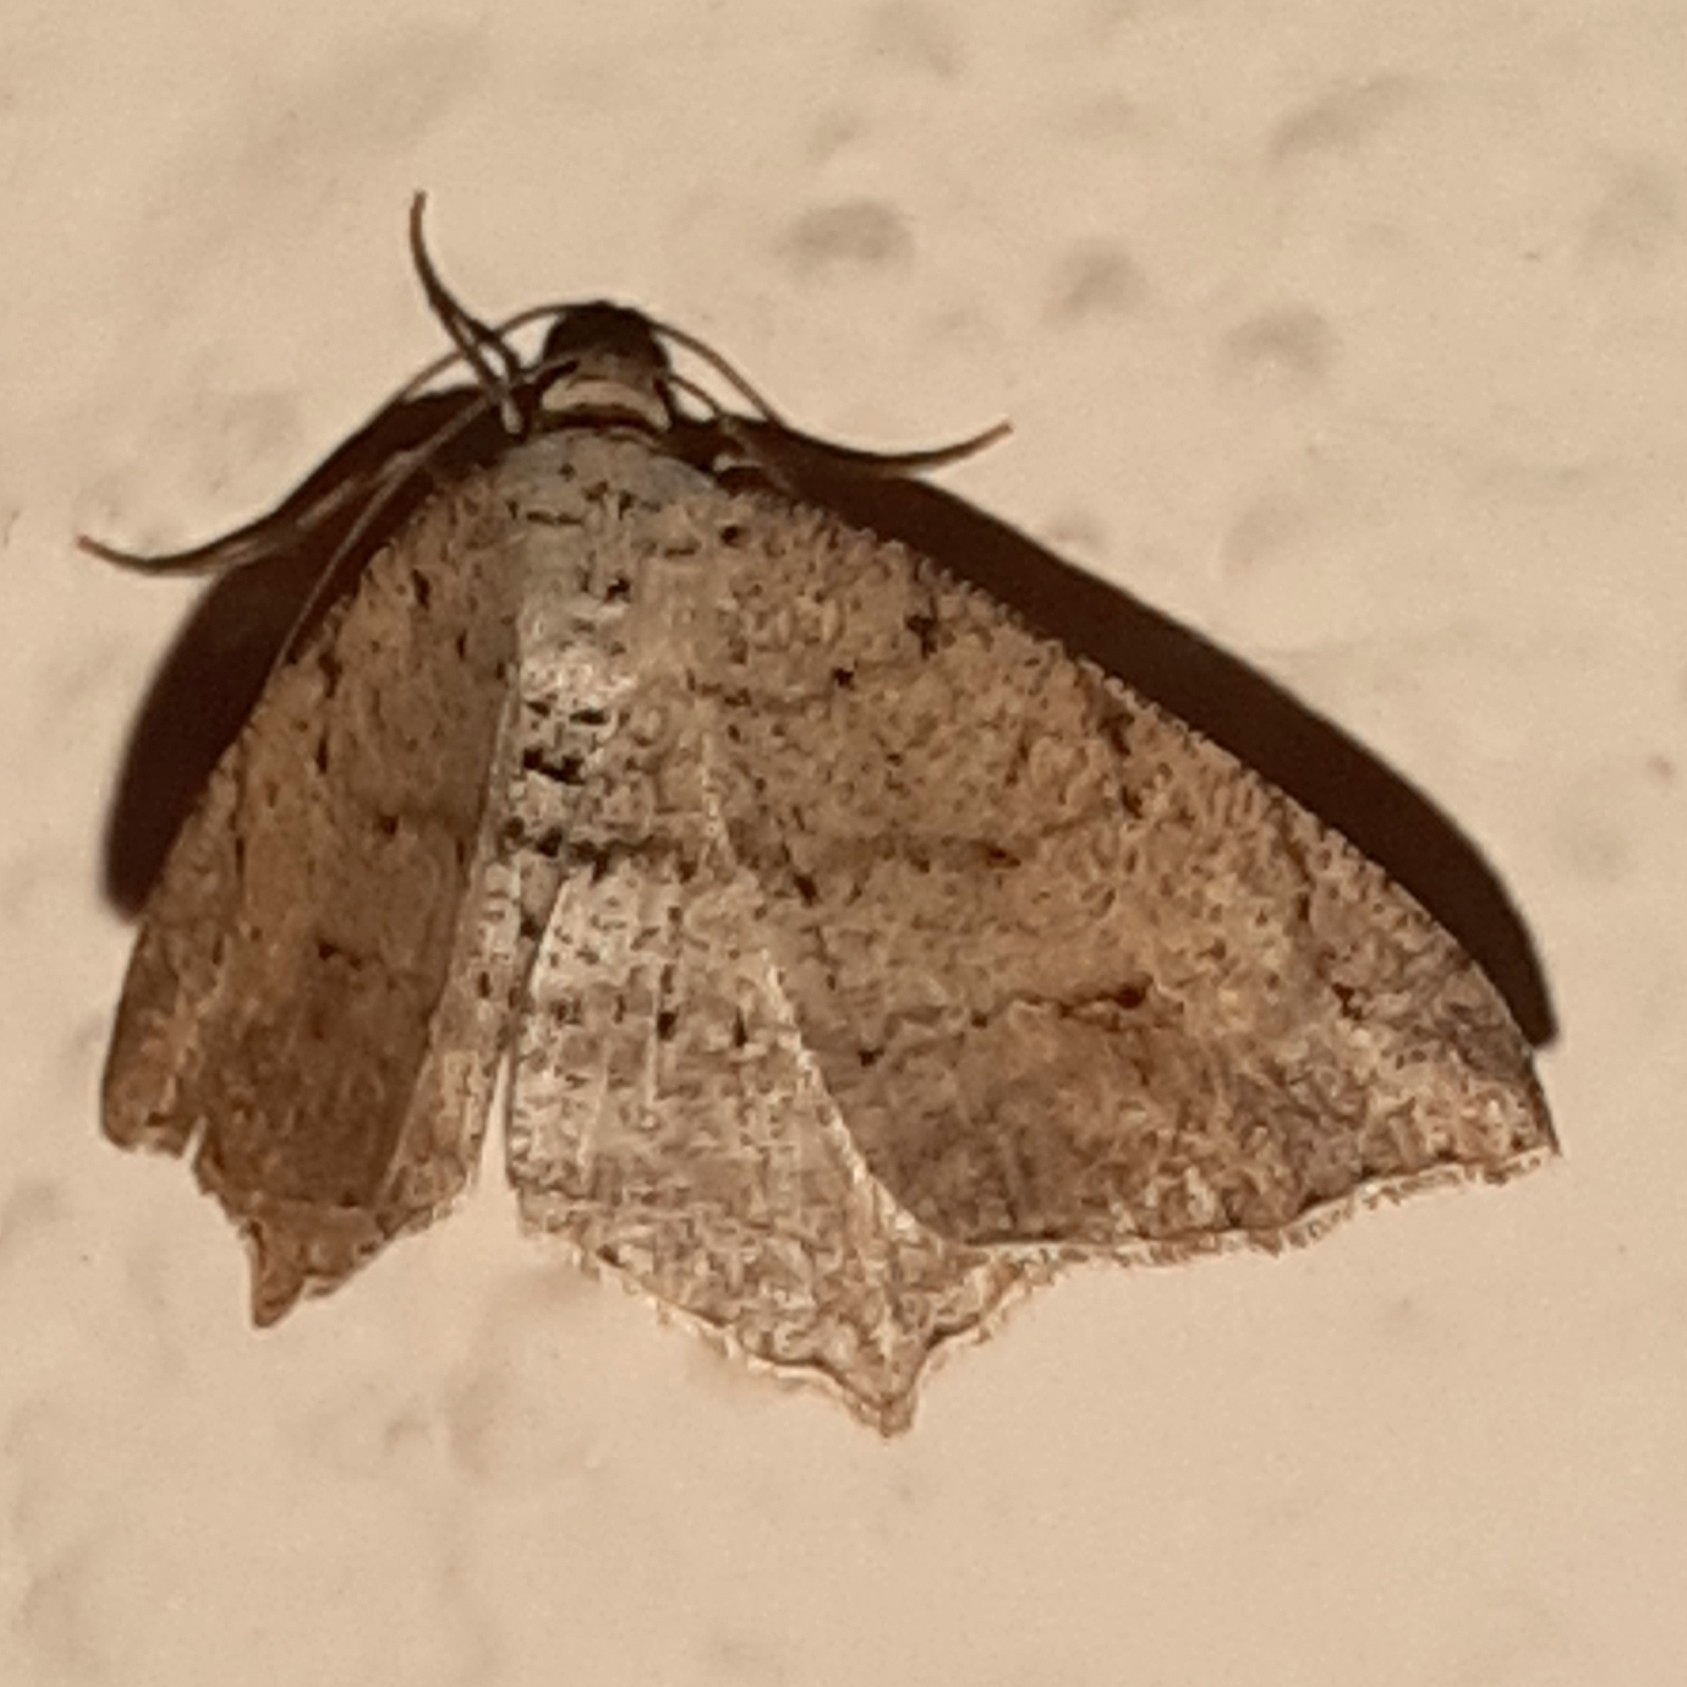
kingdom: Animalia
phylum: Arthropoda
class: Insecta
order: Lepidoptera
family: Geometridae
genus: Macaria
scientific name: Macaria
